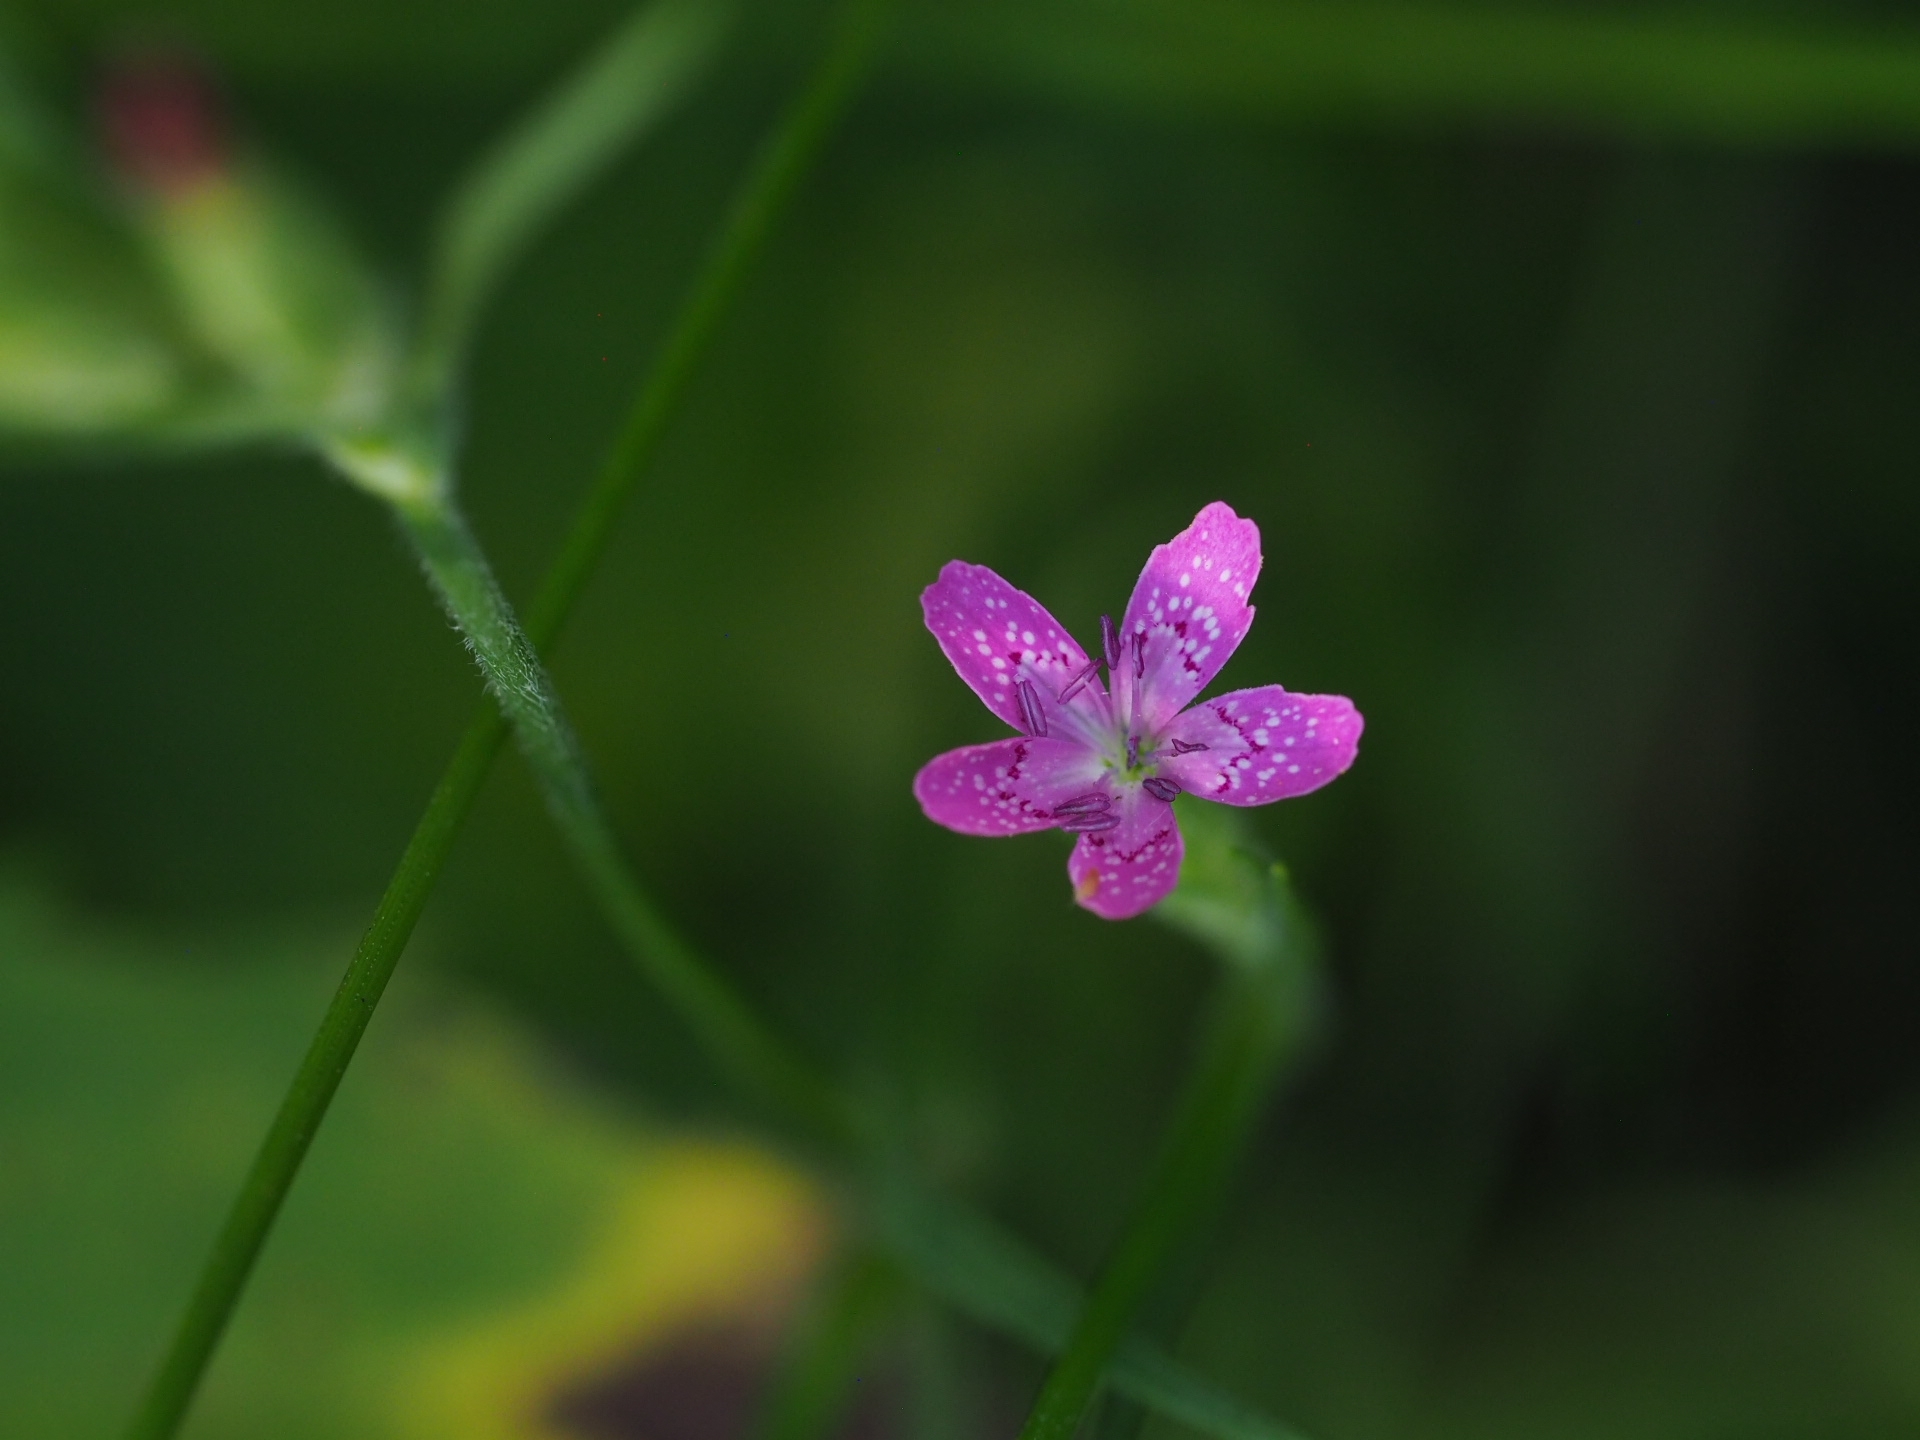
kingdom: Plantae
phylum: Tracheophyta
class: Magnoliopsida
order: Caryophyllales
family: Caryophyllaceae
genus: Dianthus
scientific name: Dianthus armeria
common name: Deptford pink
